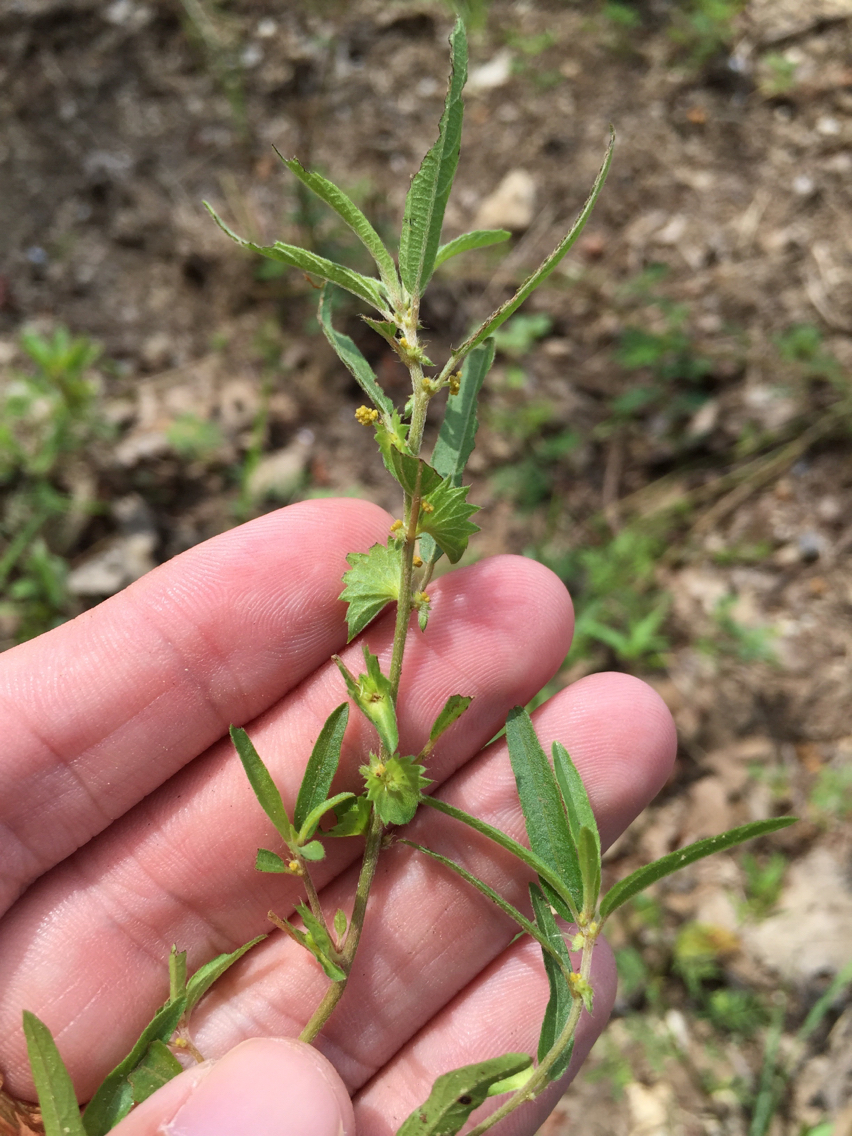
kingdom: Plantae
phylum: Tracheophyta
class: Magnoliopsida
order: Malpighiales
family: Euphorbiaceae
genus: Acalypha
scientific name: Acalypha monococca
